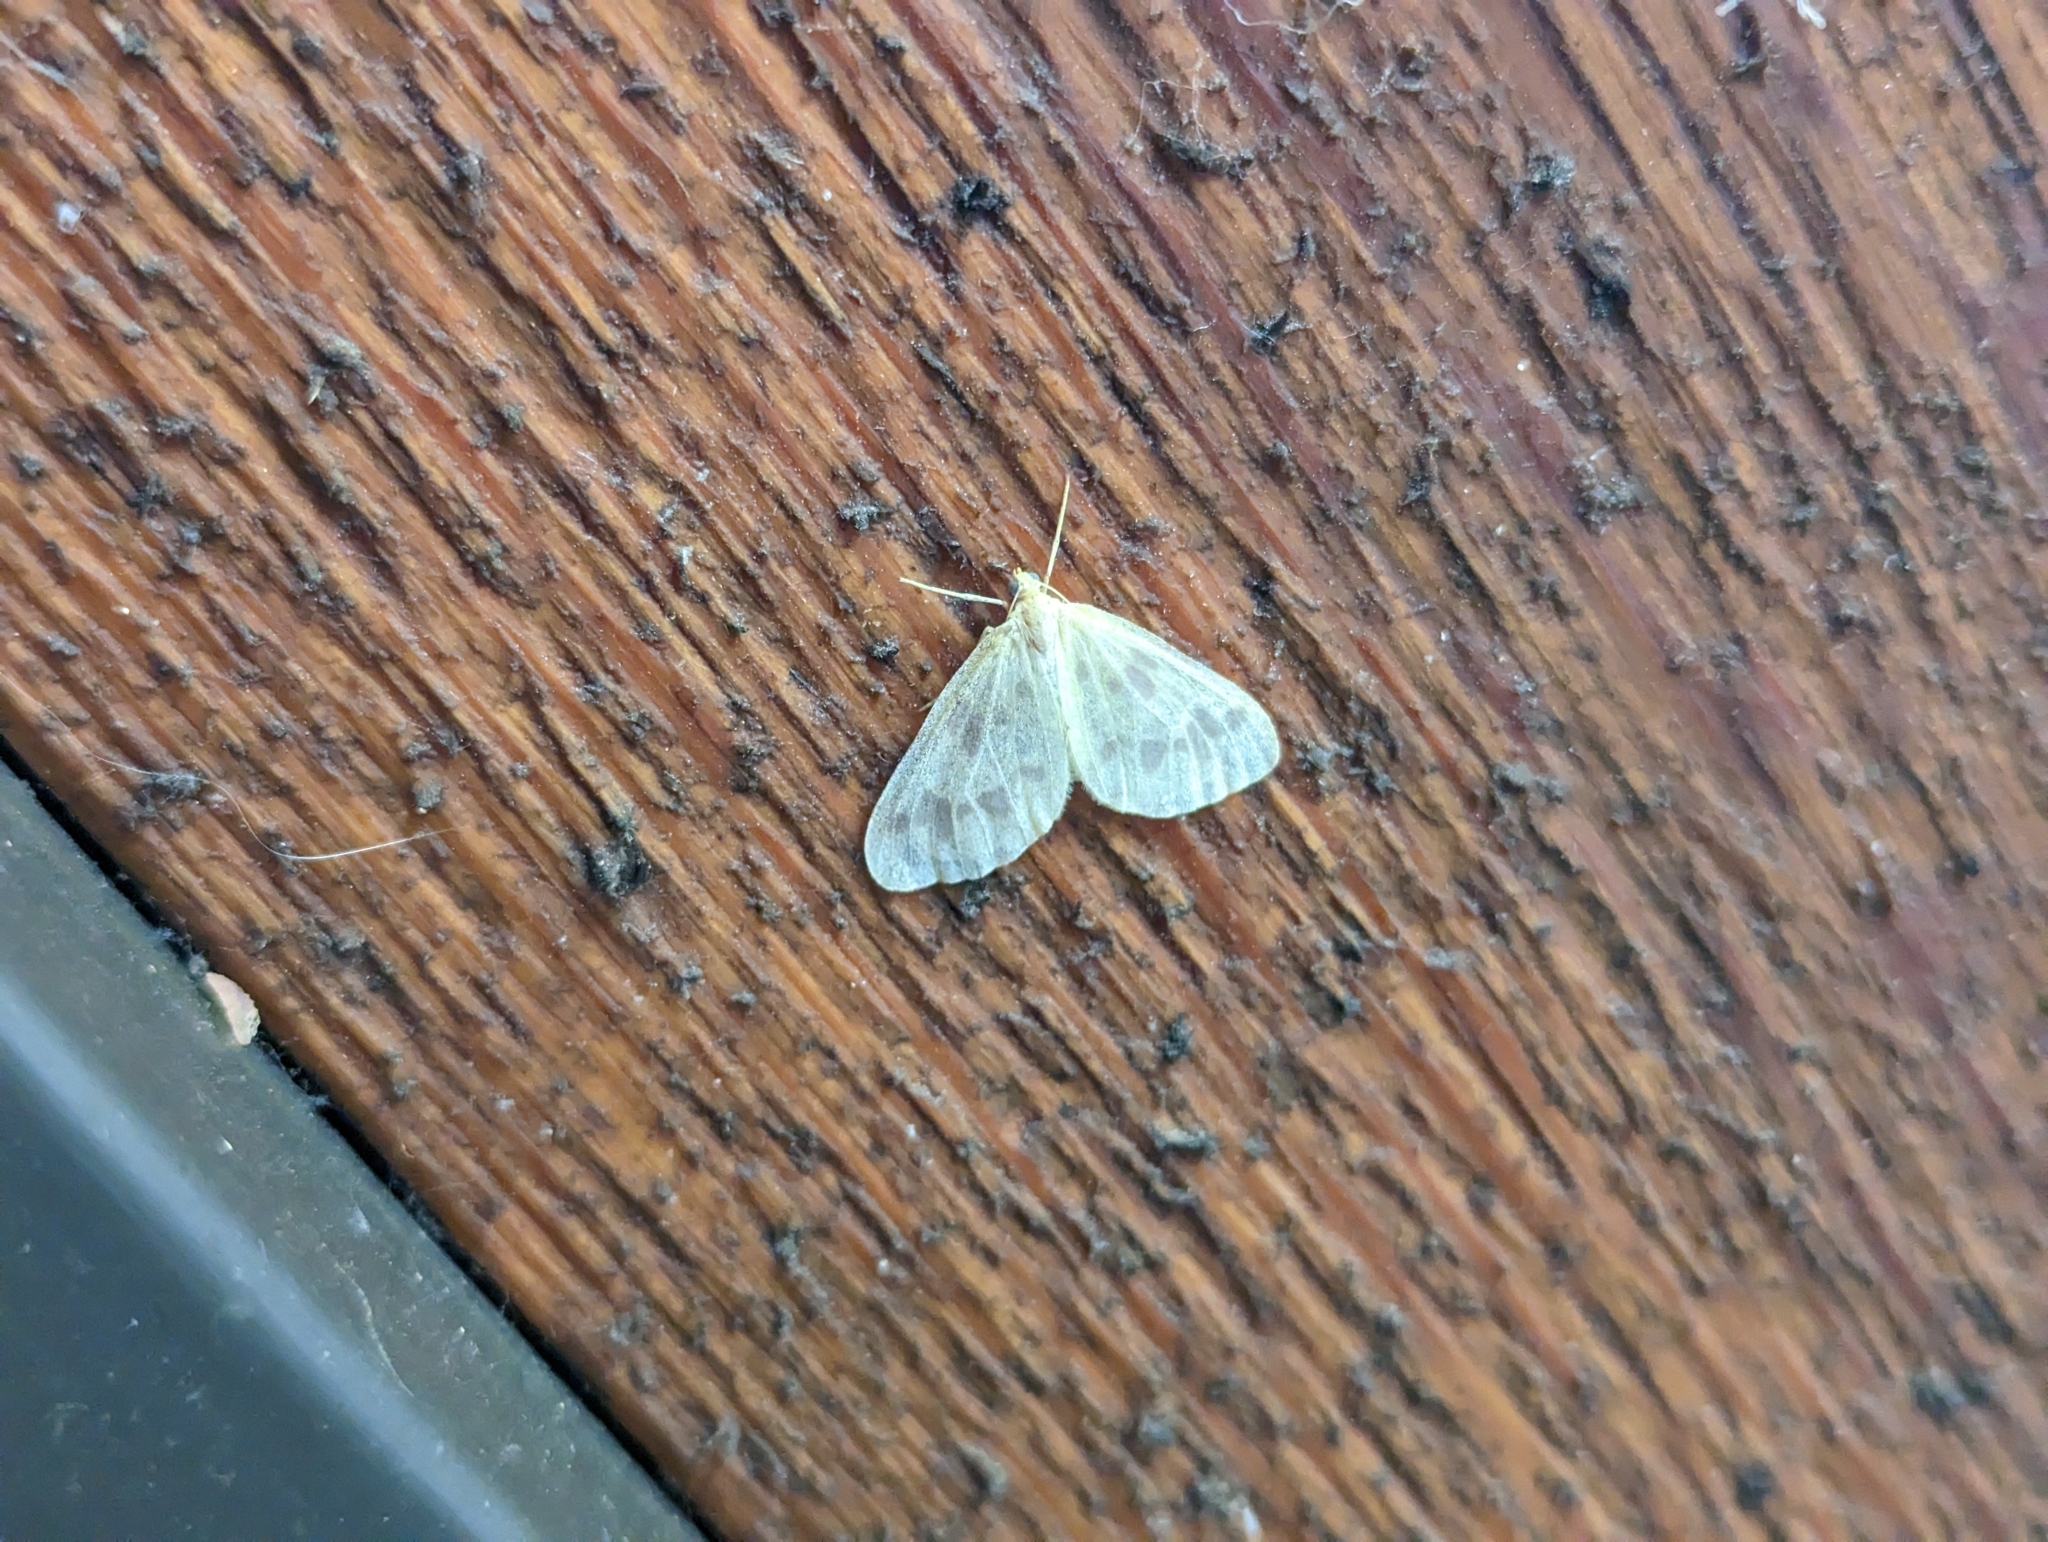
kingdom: Animalia
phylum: Arthropoda
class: Insecta
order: Lepidoptera
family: Geometridae
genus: Eubaphe
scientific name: Eubaphe mendica
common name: Beggar
